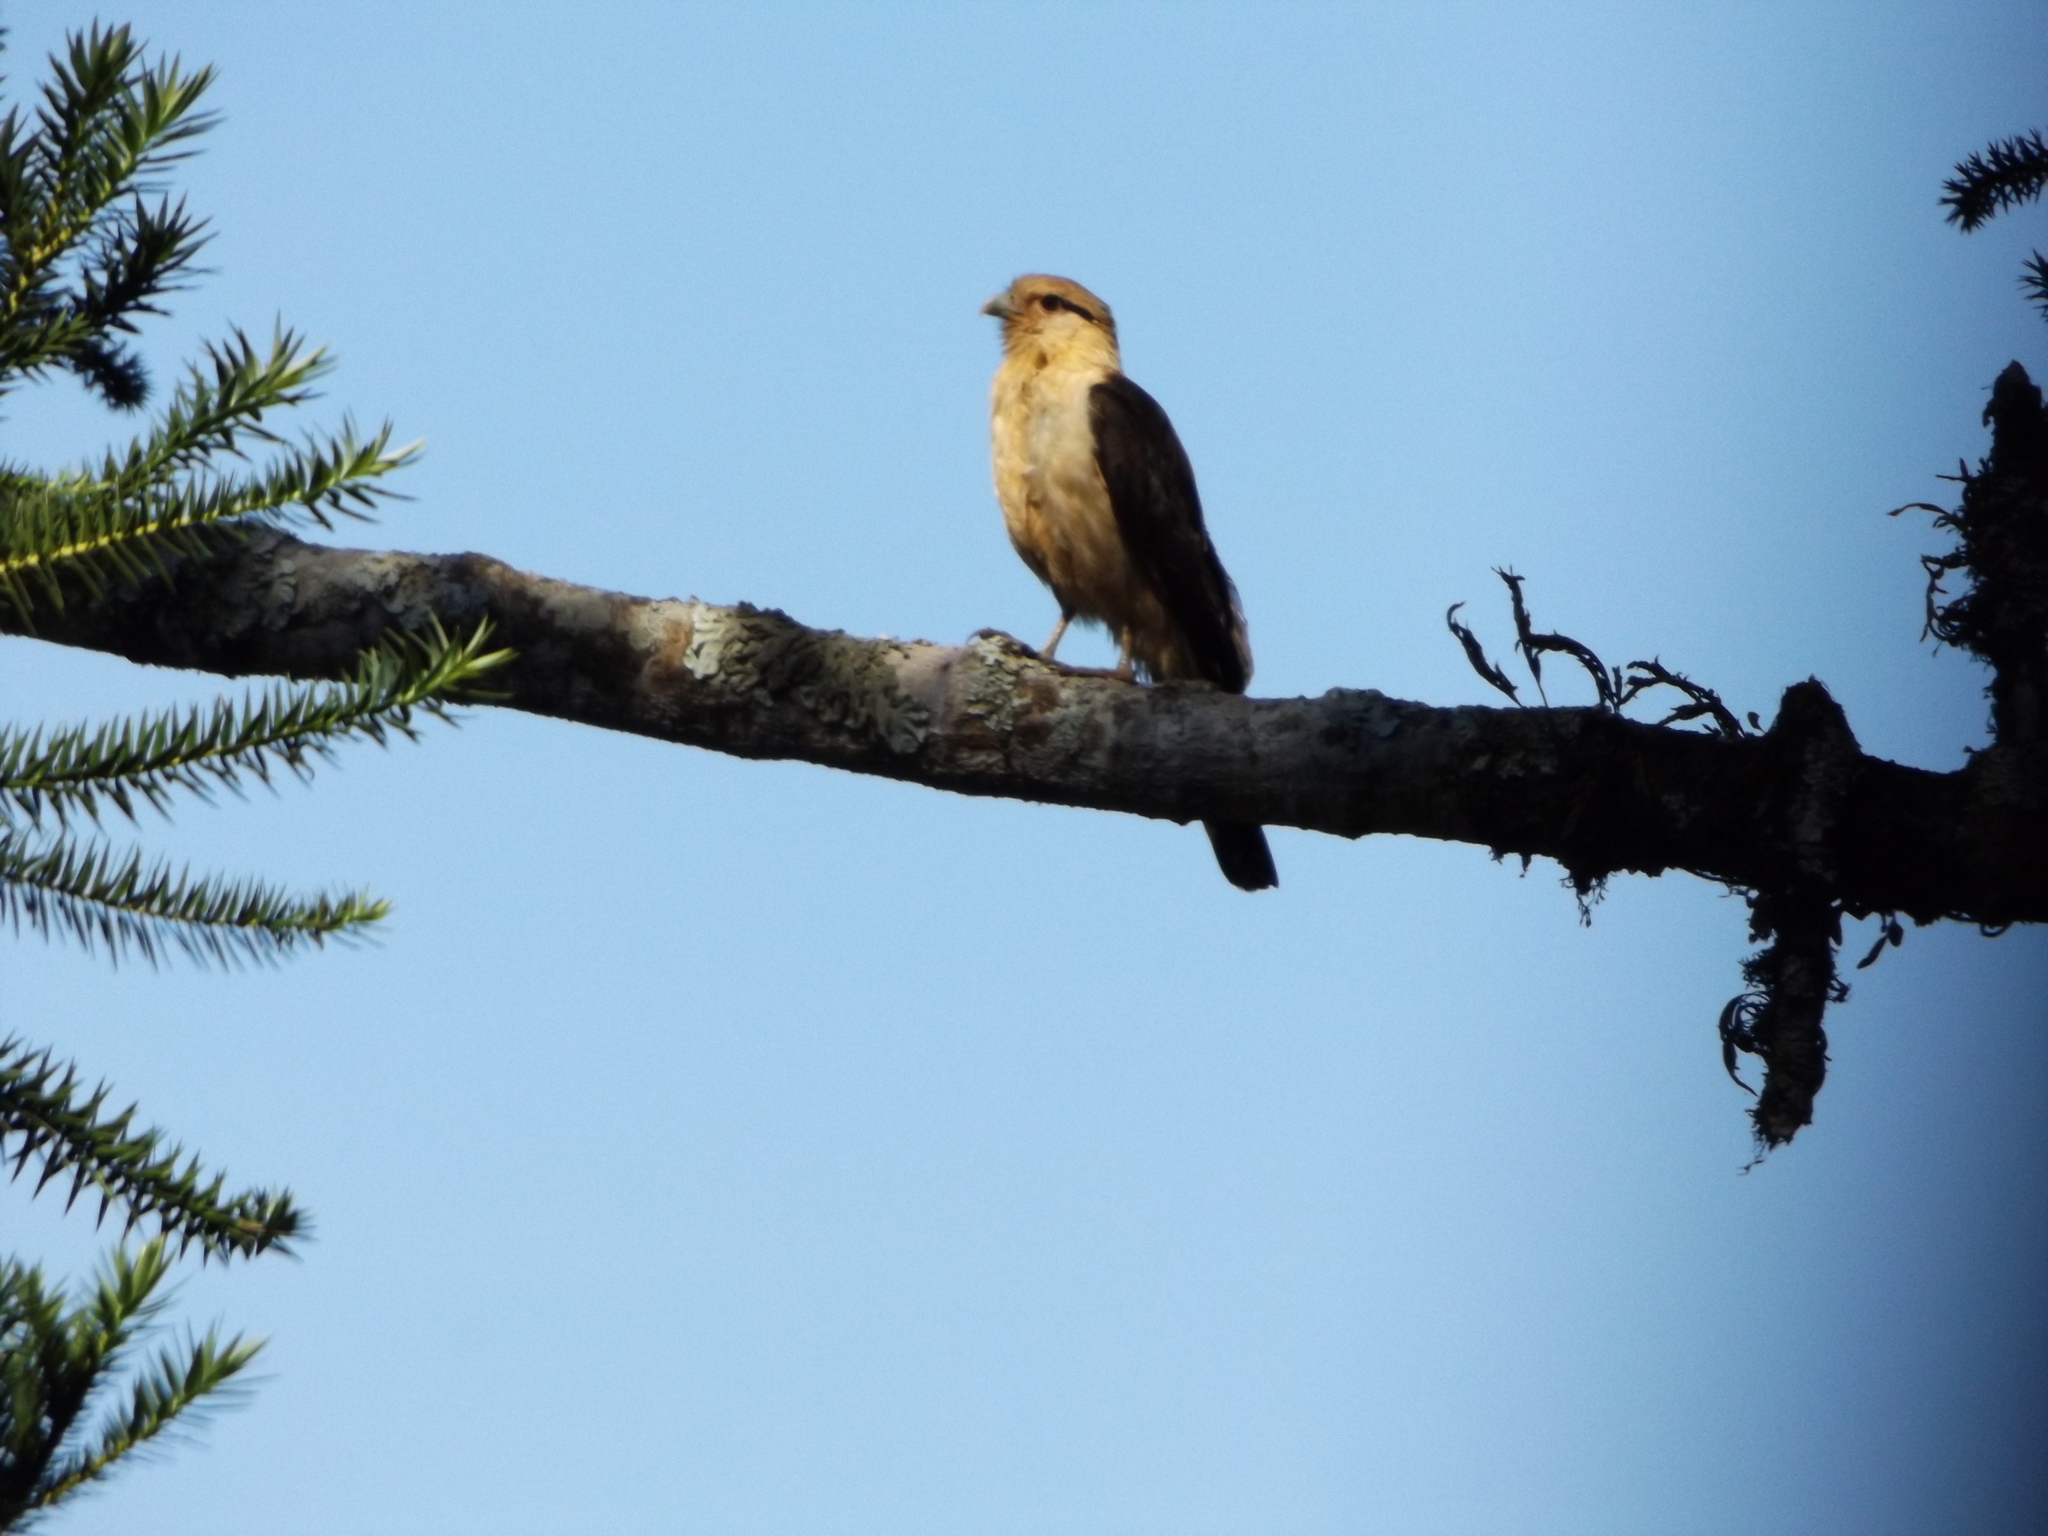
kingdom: Animalia
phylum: Chordata
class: Aves
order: Falconiformes
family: Falconidae
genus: Daptrius
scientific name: Daptrius
